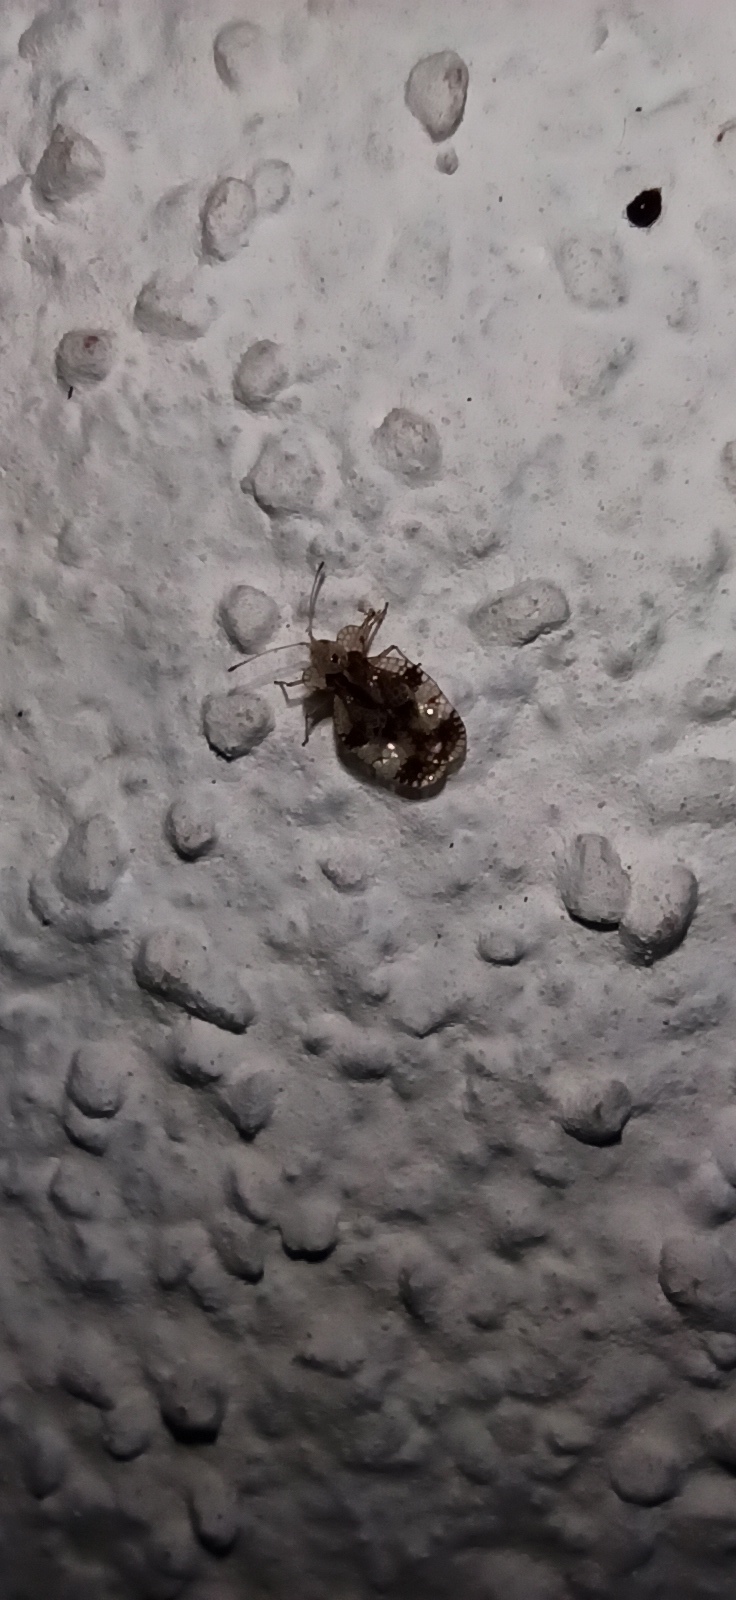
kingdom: Animalia
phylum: Arthropoda
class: Insecta
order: Hemiptera
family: Tingidae
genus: Stephanitis
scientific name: Stephanitis pyri
